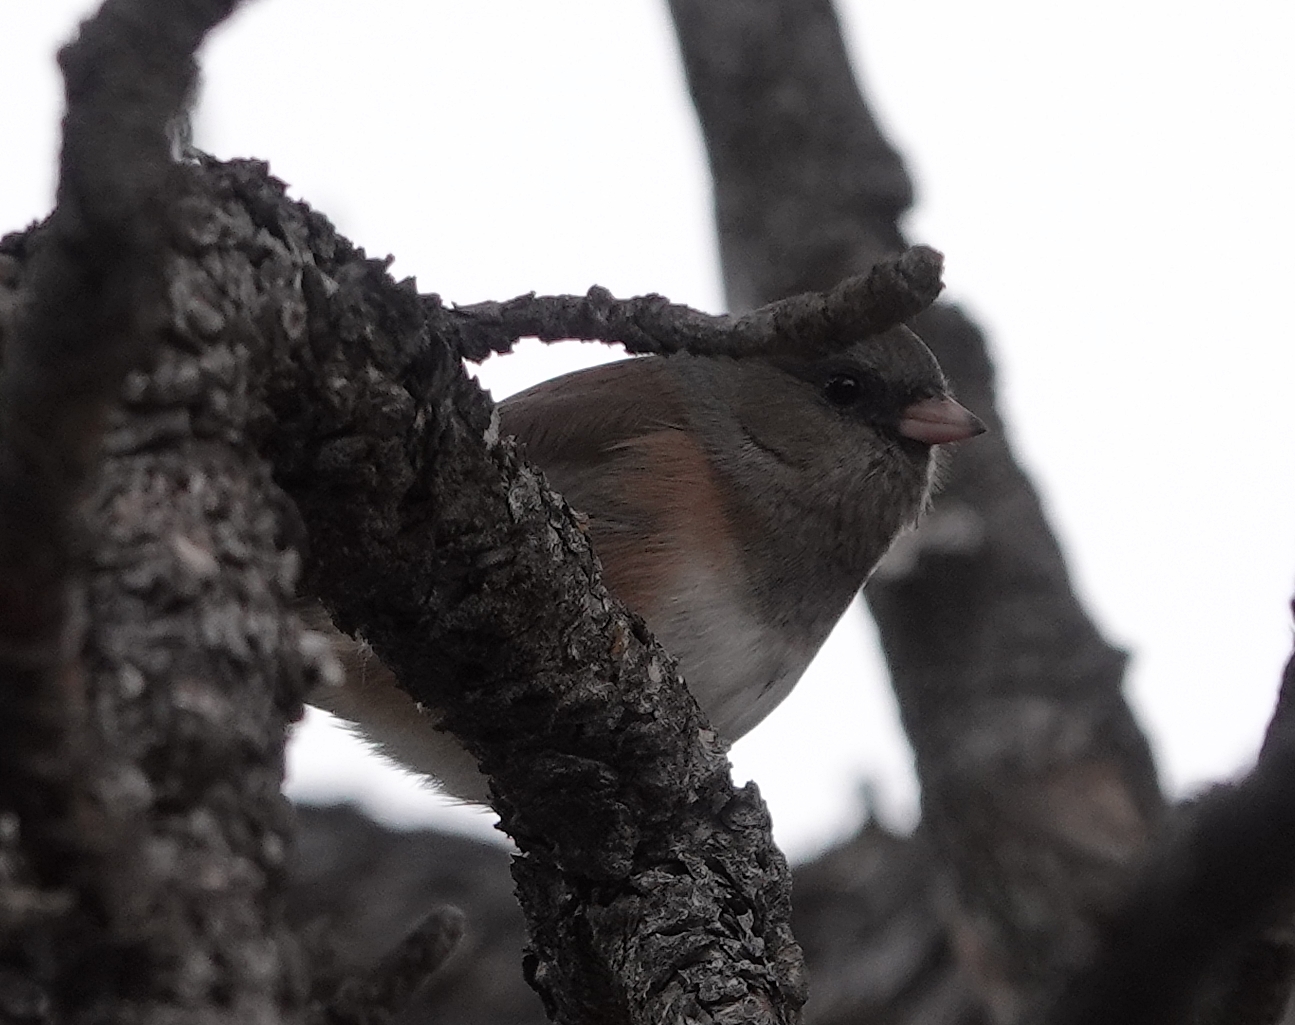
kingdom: Animalia
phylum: Chordata
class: Aves
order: Passeriformes
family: Passerellidae
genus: Junco
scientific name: Junco hyemalis
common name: Dark-eyed junco
